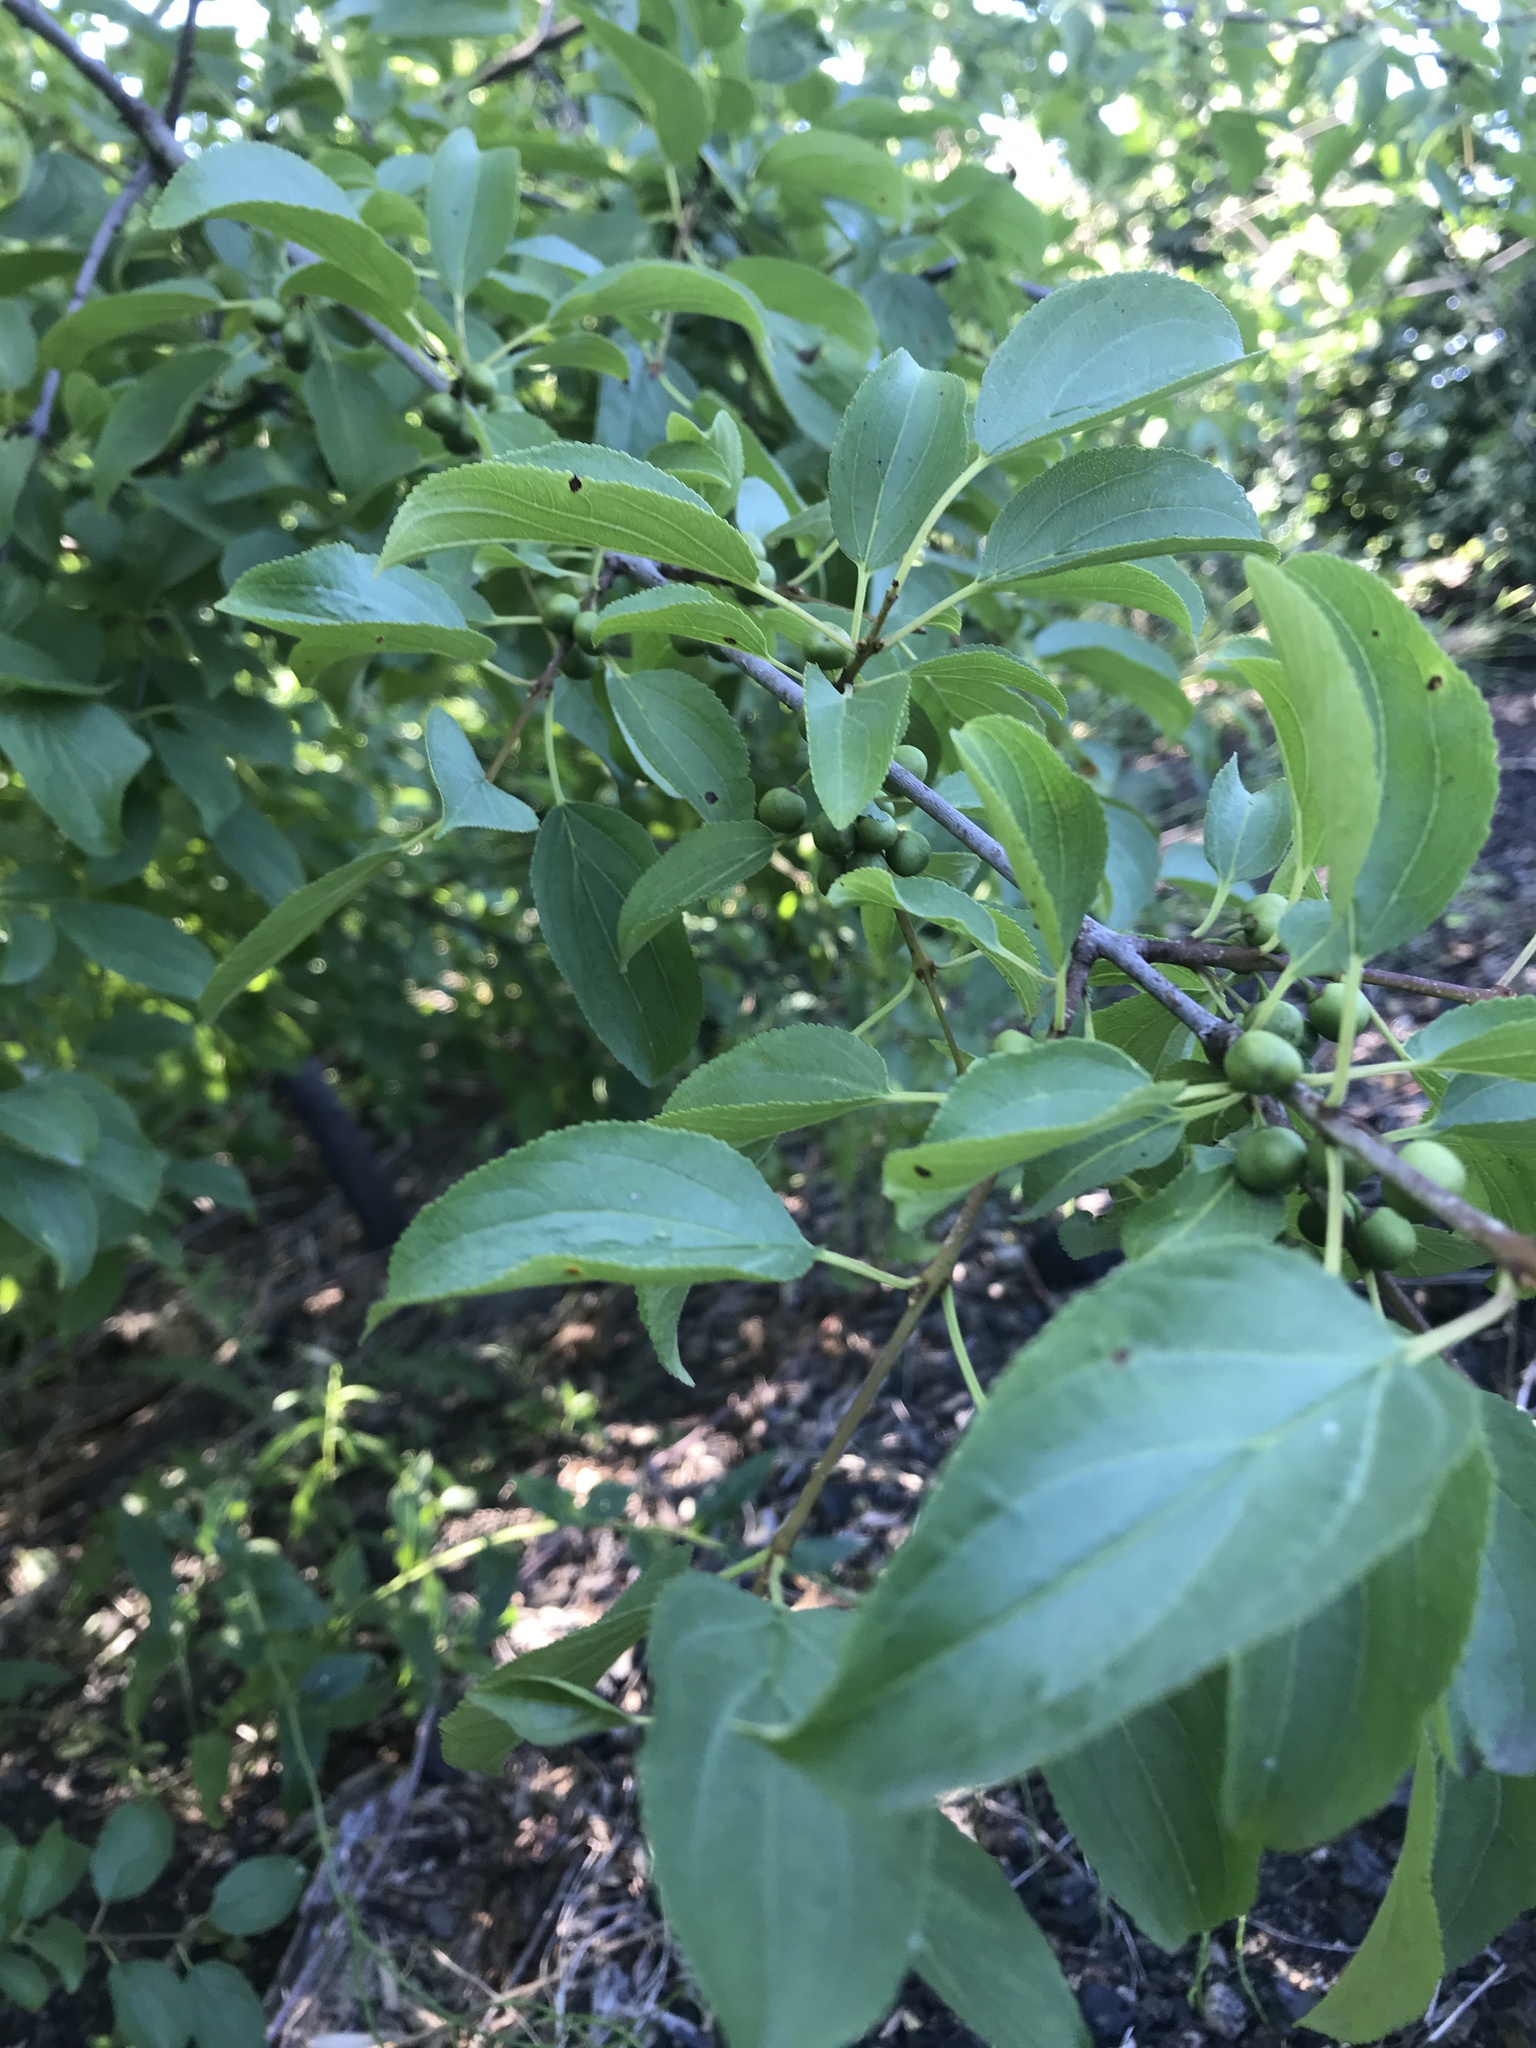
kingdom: Plantae
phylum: Tracheophyta
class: Magnoliopsida
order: Rosales
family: Rhamnaceae
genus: Rhamnus
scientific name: Rhamnus cathartica
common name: Common buckthorn
